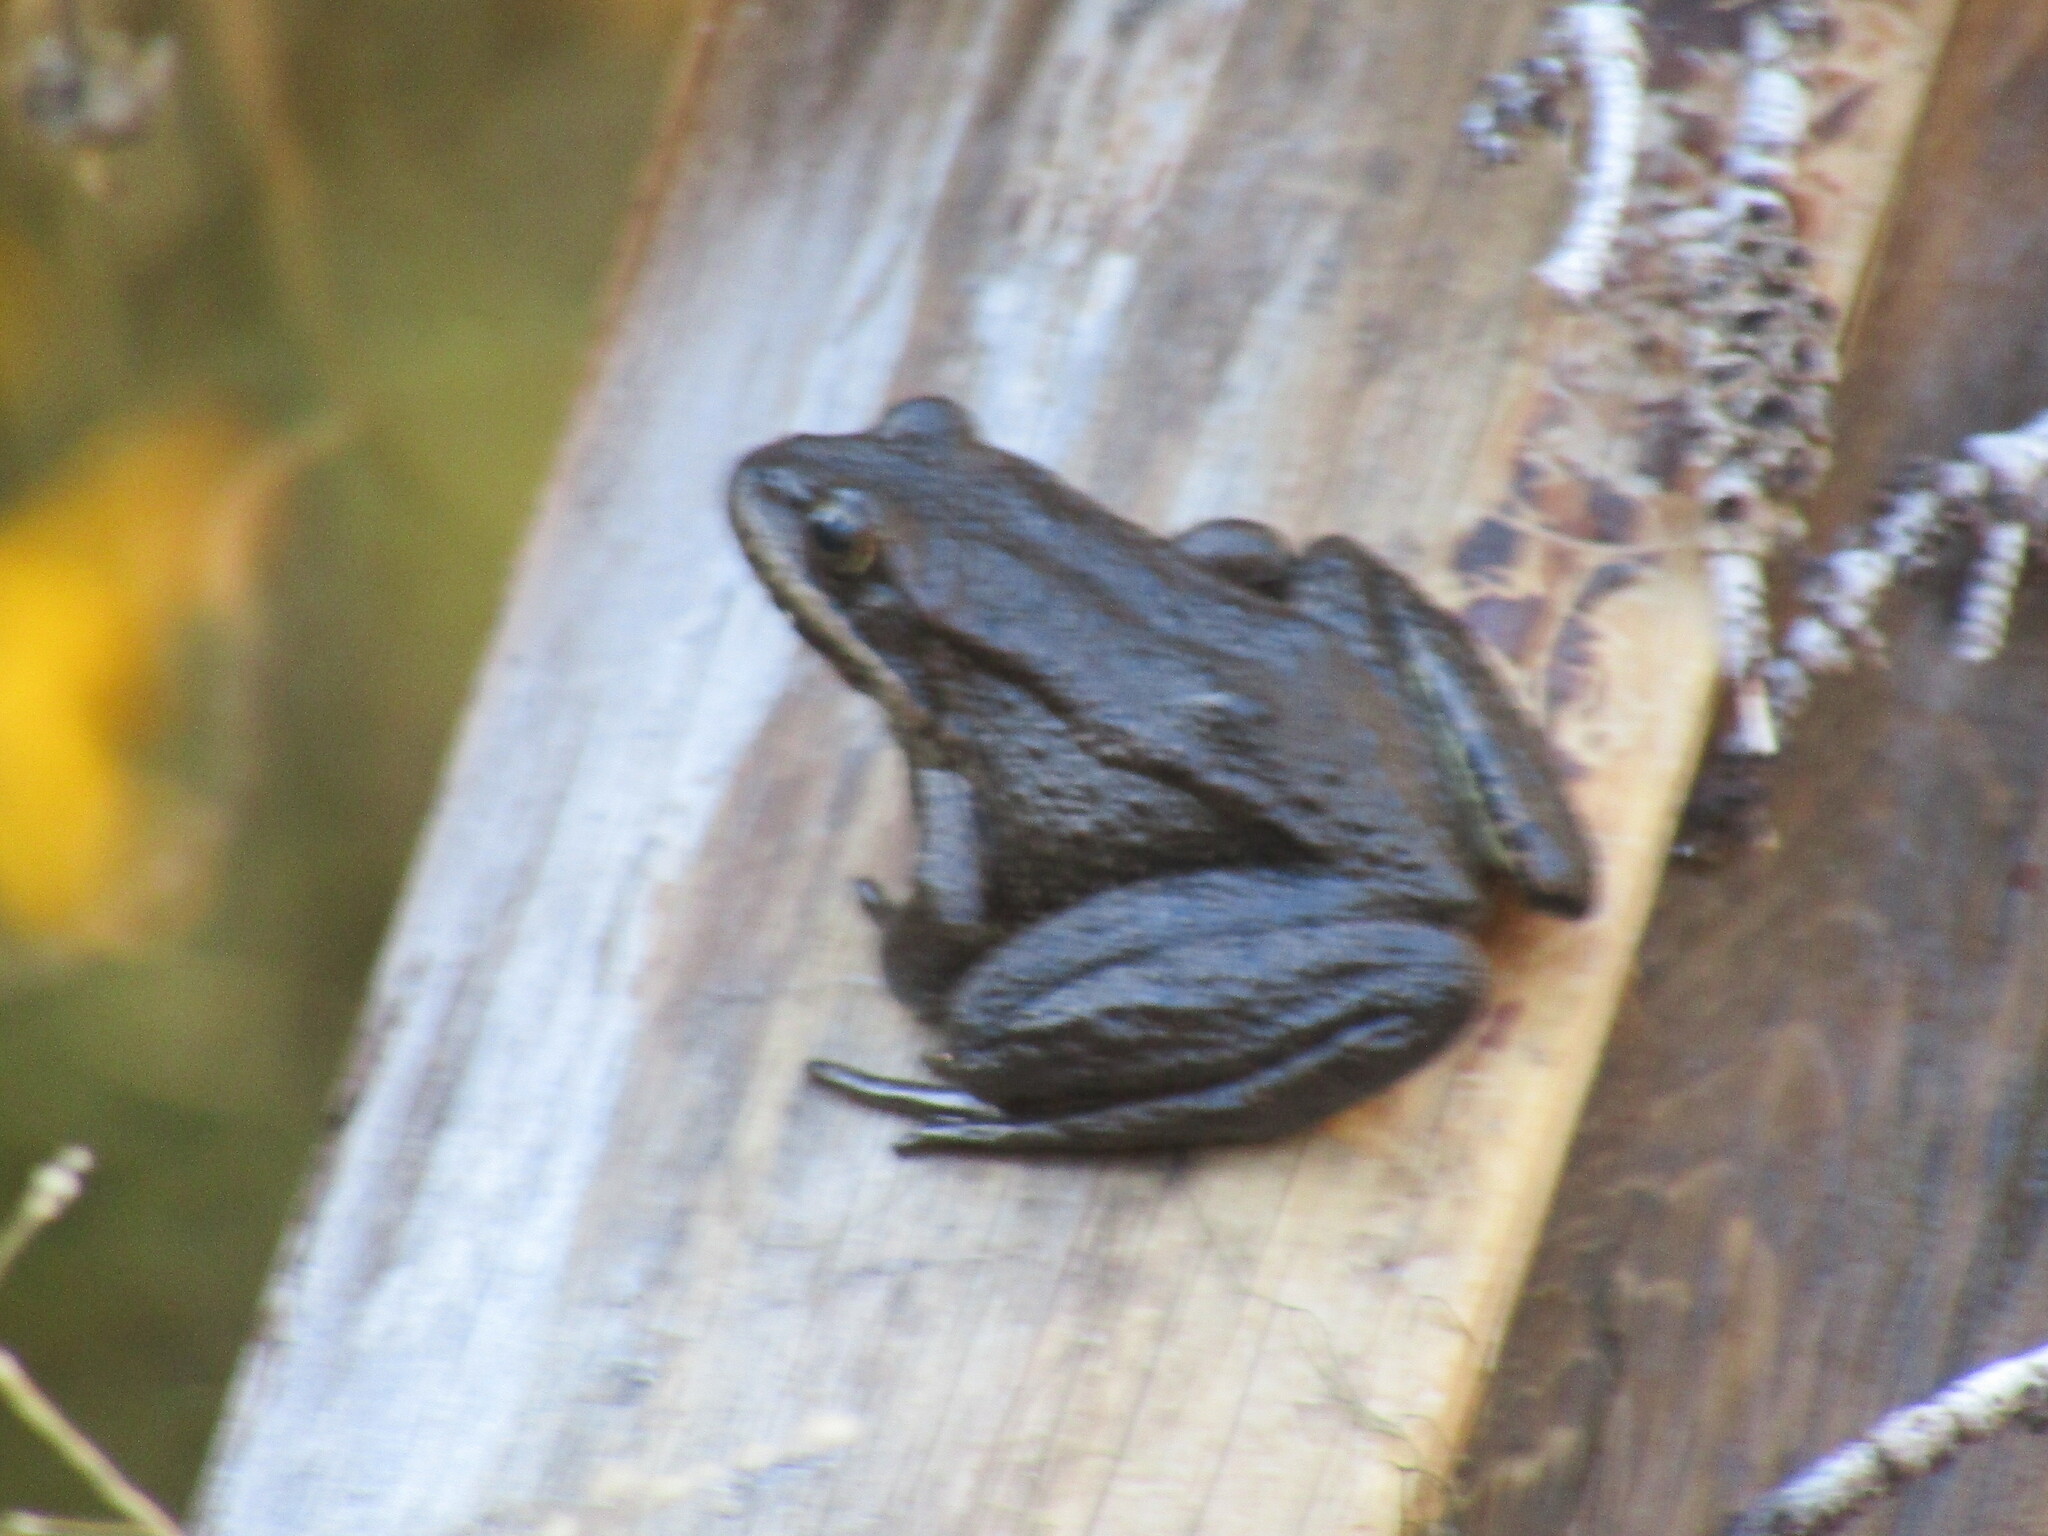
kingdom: Animalia
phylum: Chordata
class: Amphibia
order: Anura
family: Ranidae
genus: Rana
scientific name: Rana cascadae
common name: Cascades frog
